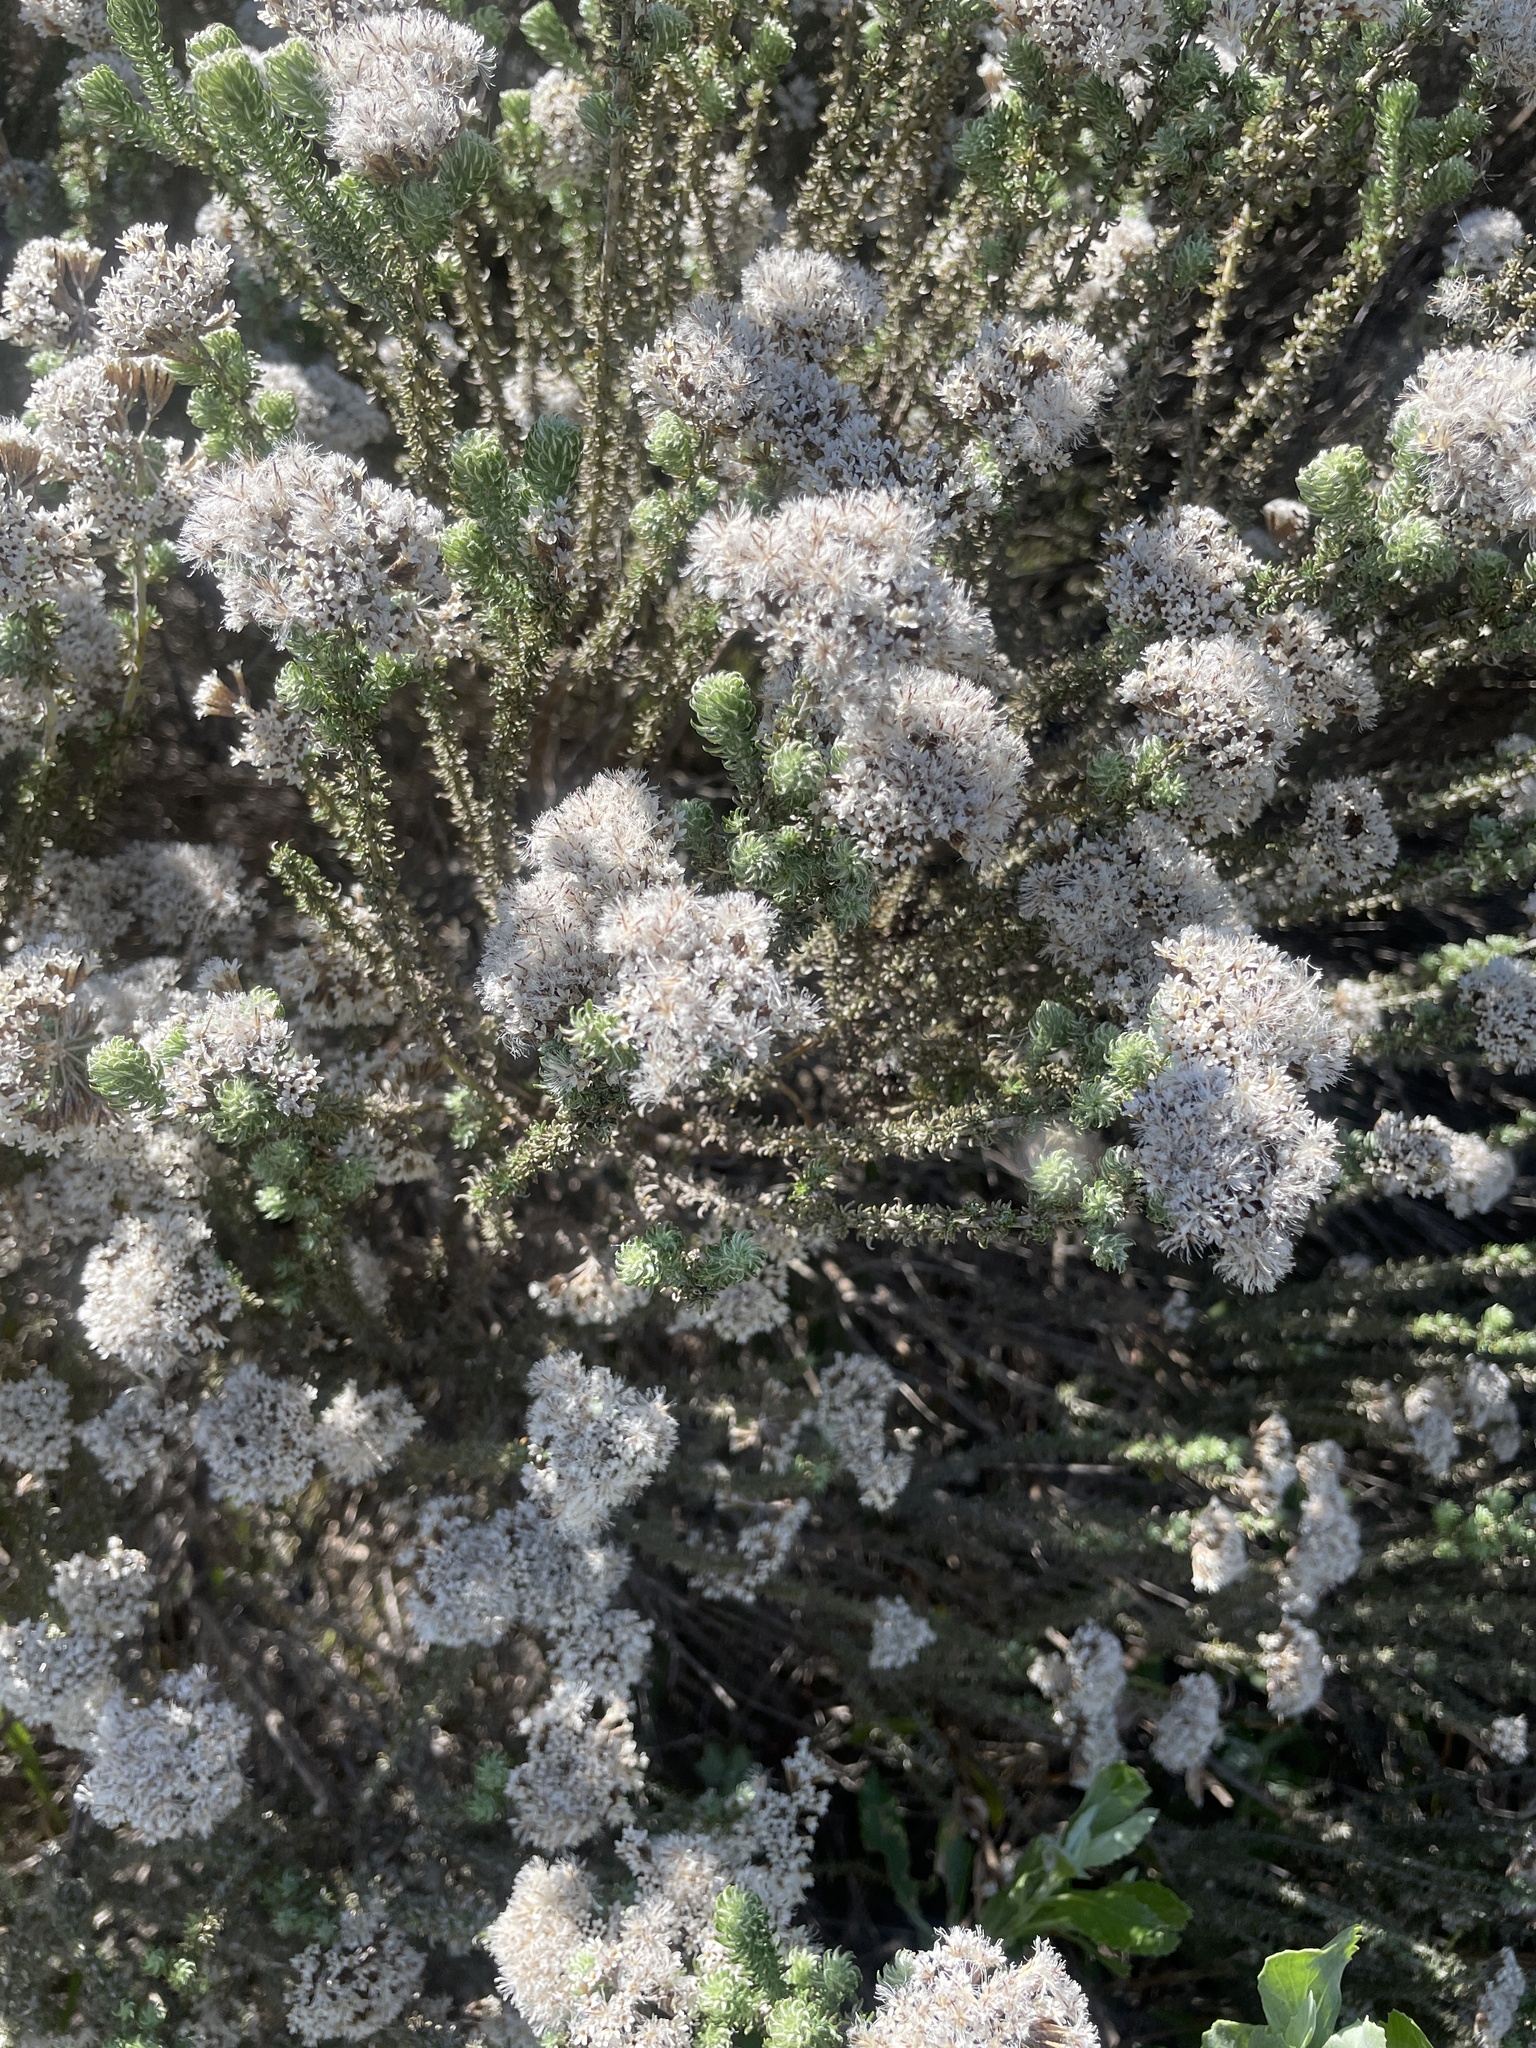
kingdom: Plantae
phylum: Tracheophyta
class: Magnoliopsida
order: Asterales
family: Asteraceae
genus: Metalasia
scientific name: Metalasia muricata
